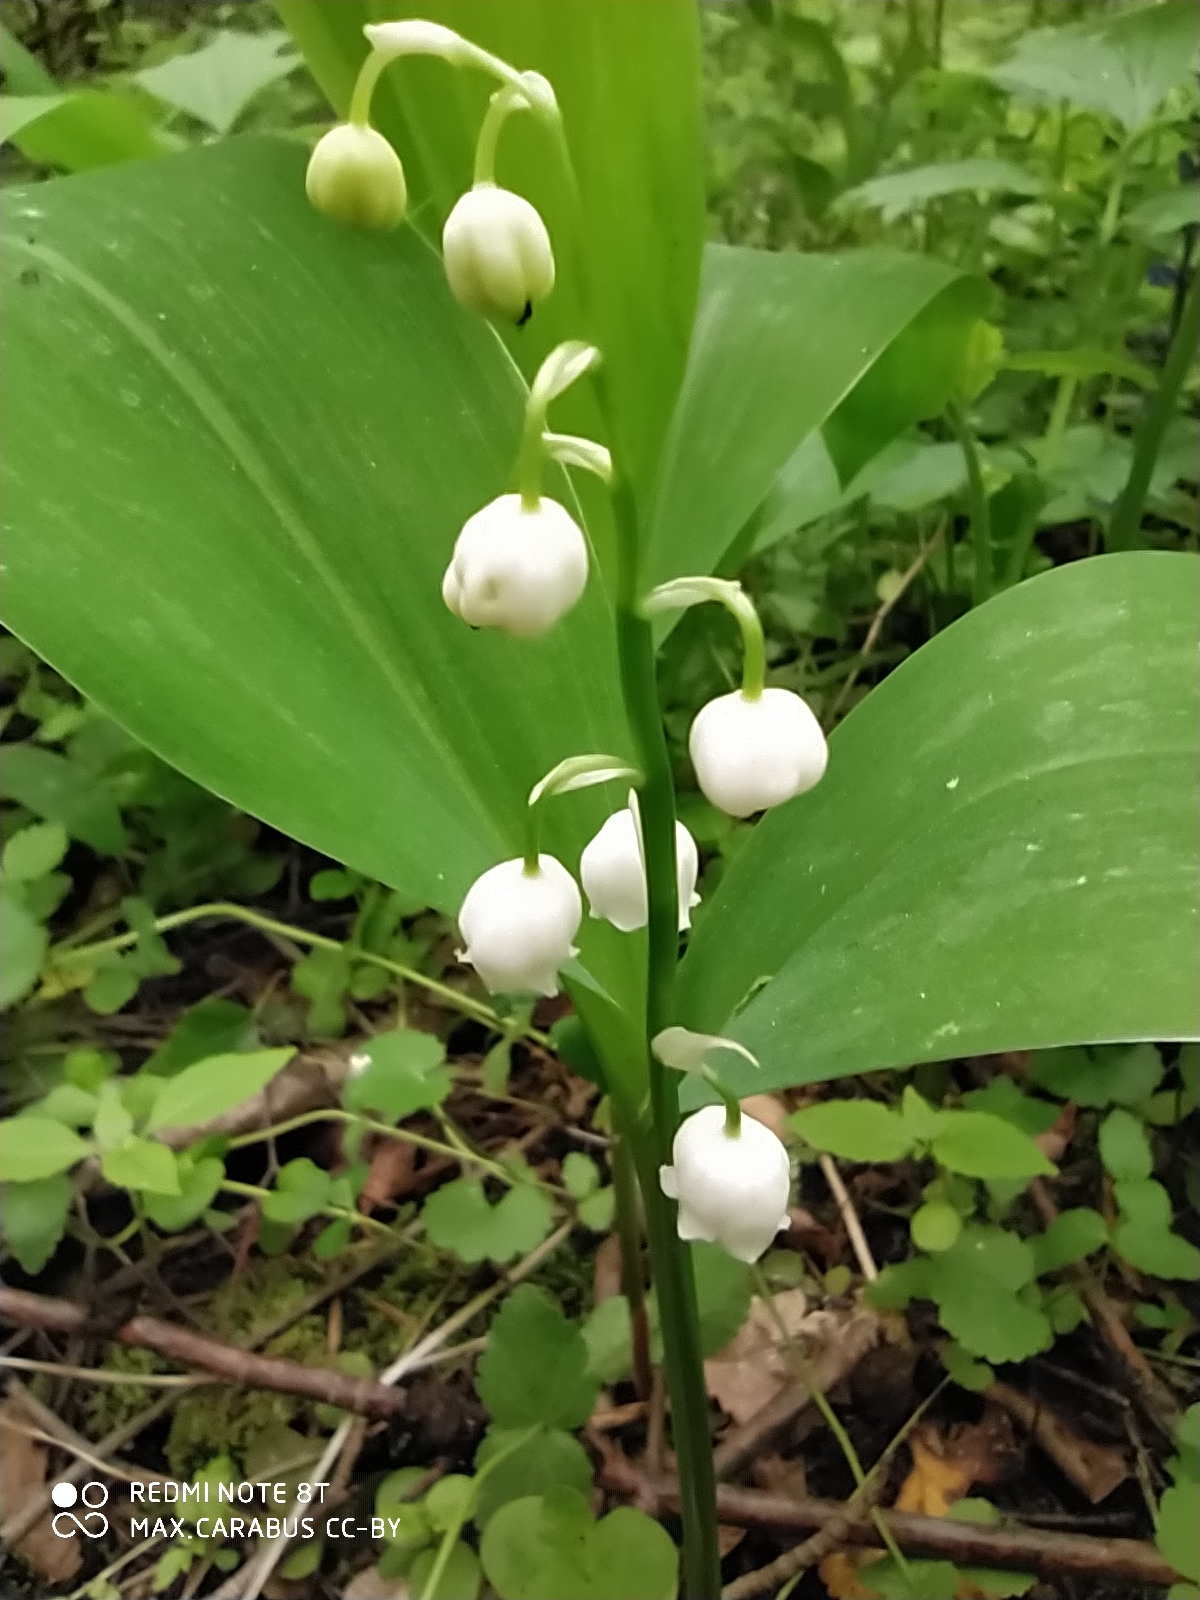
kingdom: Plantae
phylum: Tracheophyta
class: Liliopsida
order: Asparagales
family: Asparagaceae
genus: Convallaria
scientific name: Convallaria majalis
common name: Lily-of-the-valley
